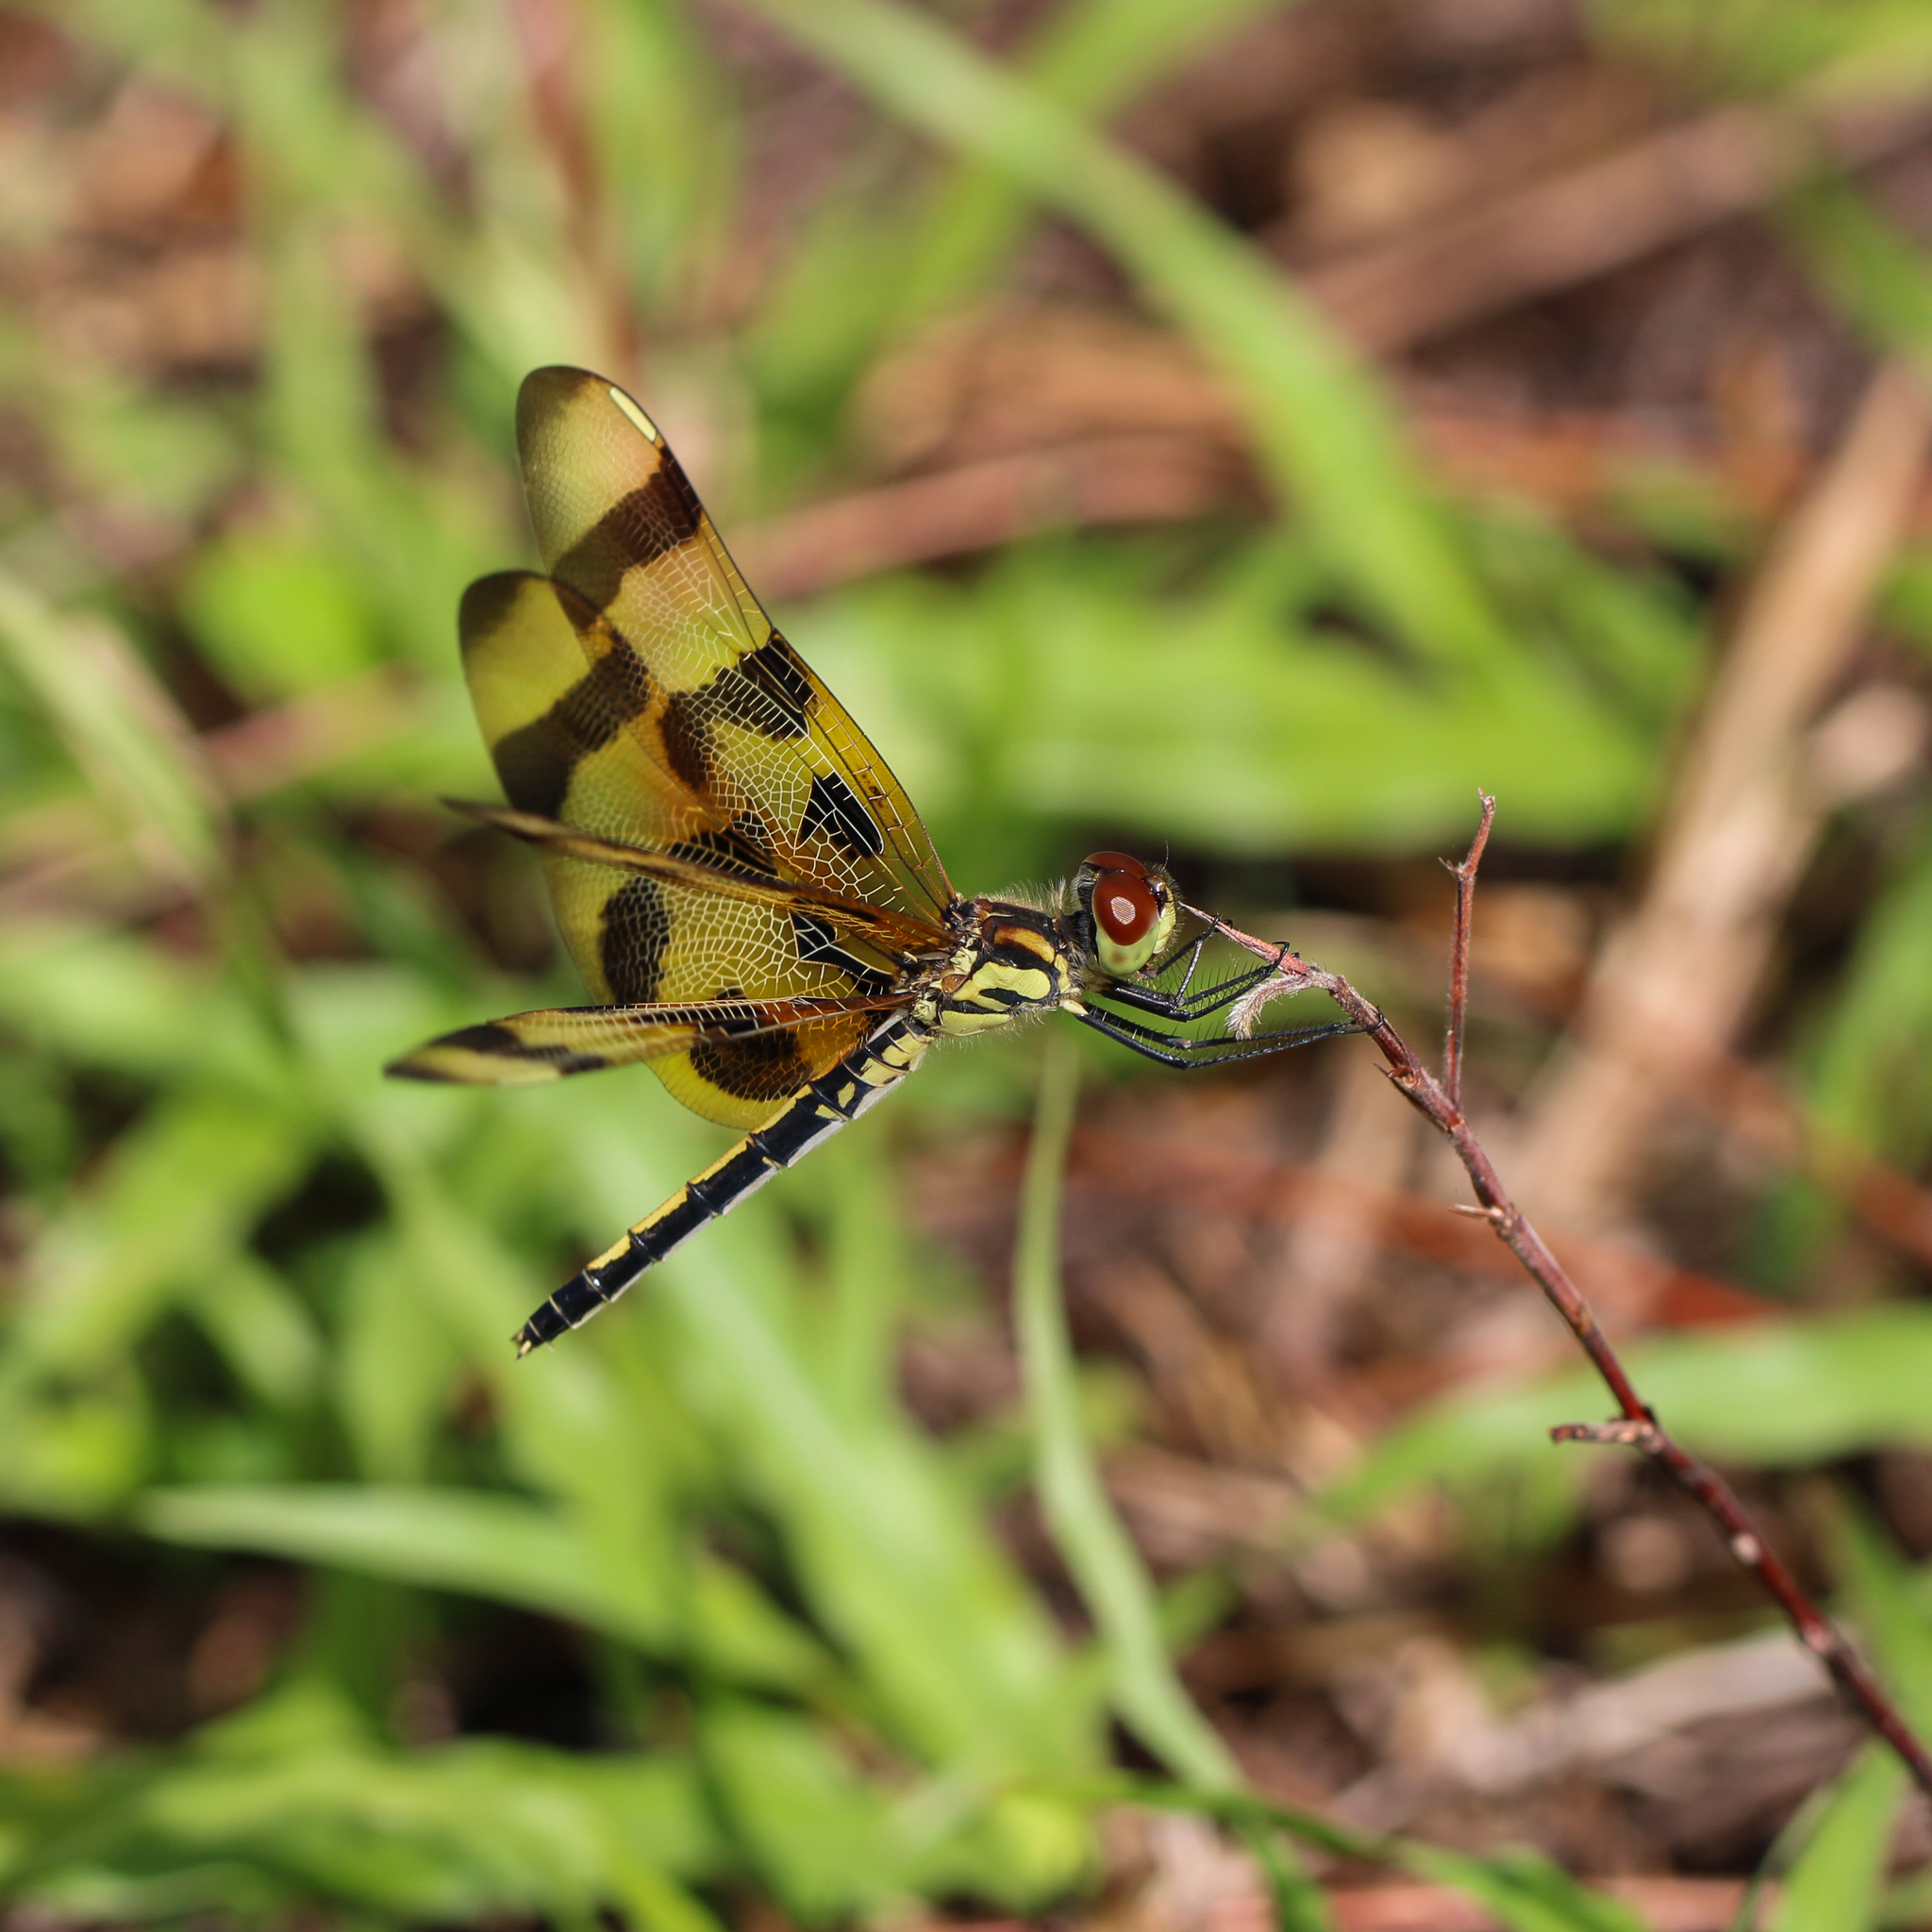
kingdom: Animalia
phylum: Arthropoda
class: Insecta
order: Odonata
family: Libellulidae
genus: Celithemis
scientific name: Celithemis eponina
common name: Halloween pennant
